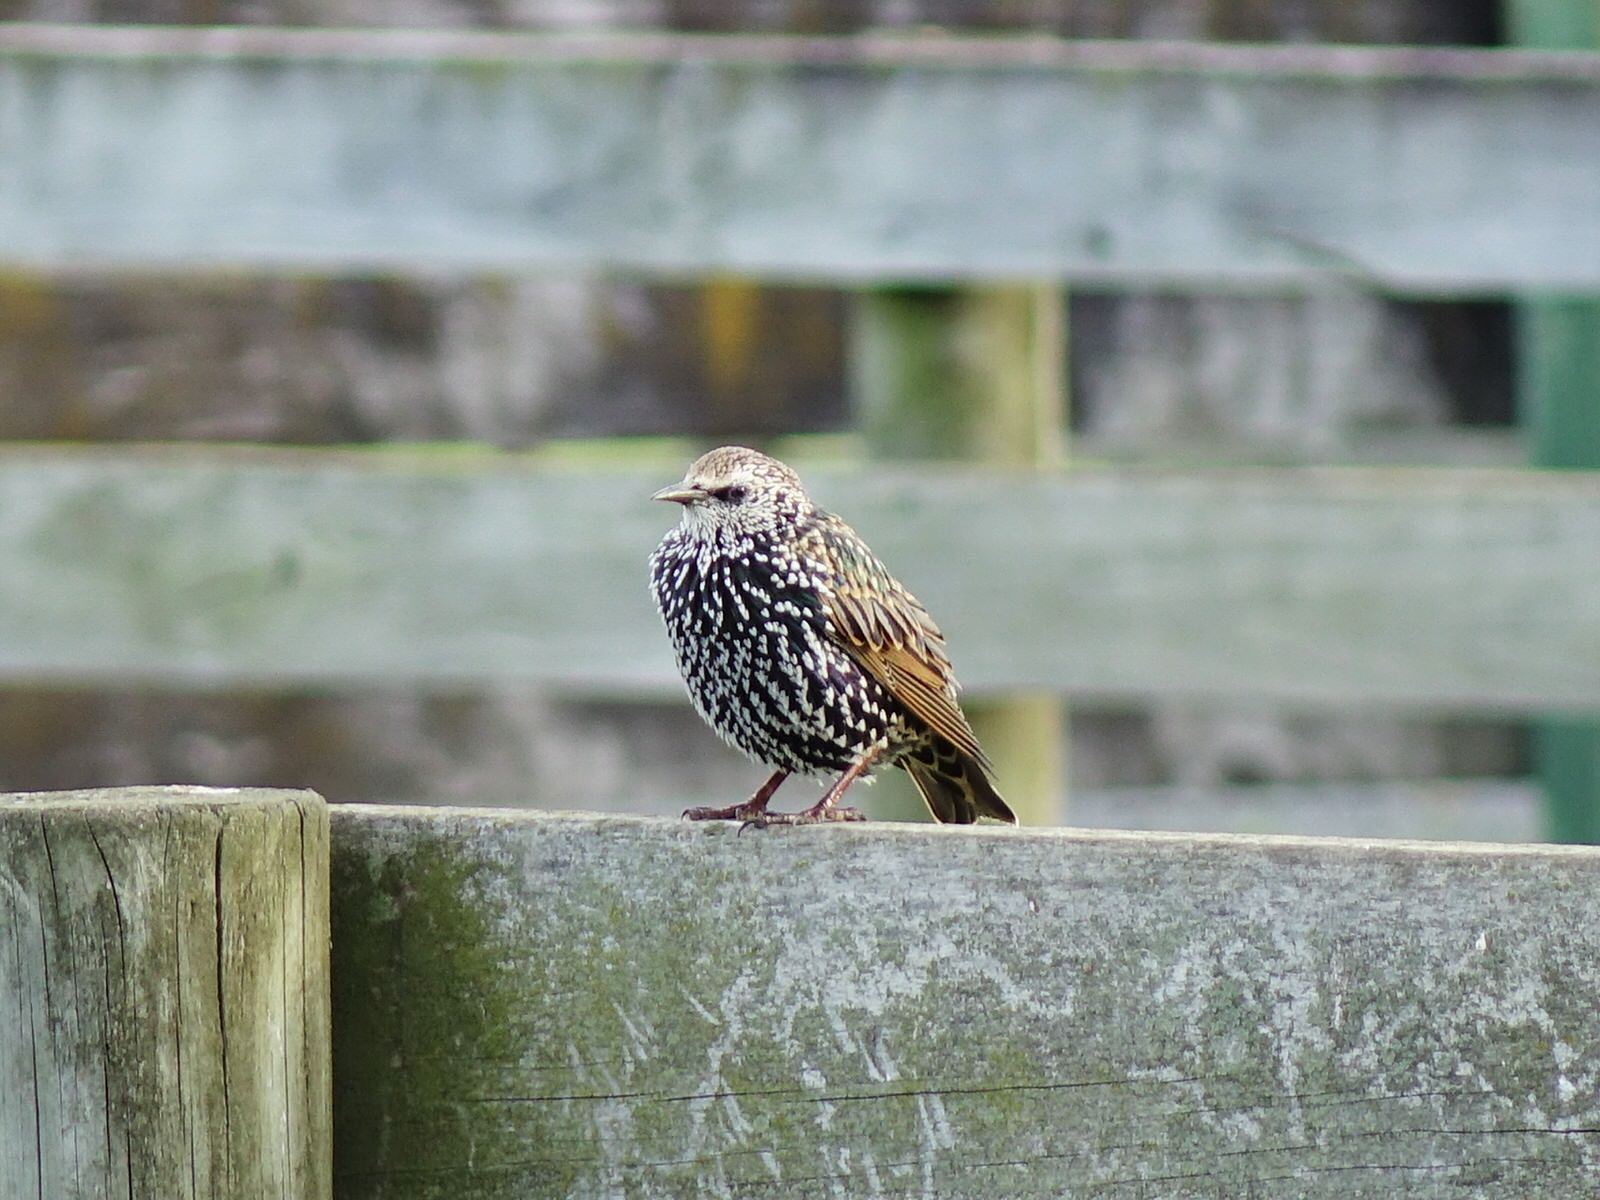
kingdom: Animalia
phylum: Chordata
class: Aves
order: Passeriformes
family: Sturnidae
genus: Sturnus
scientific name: Sturnus vulgaris
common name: Common starling
